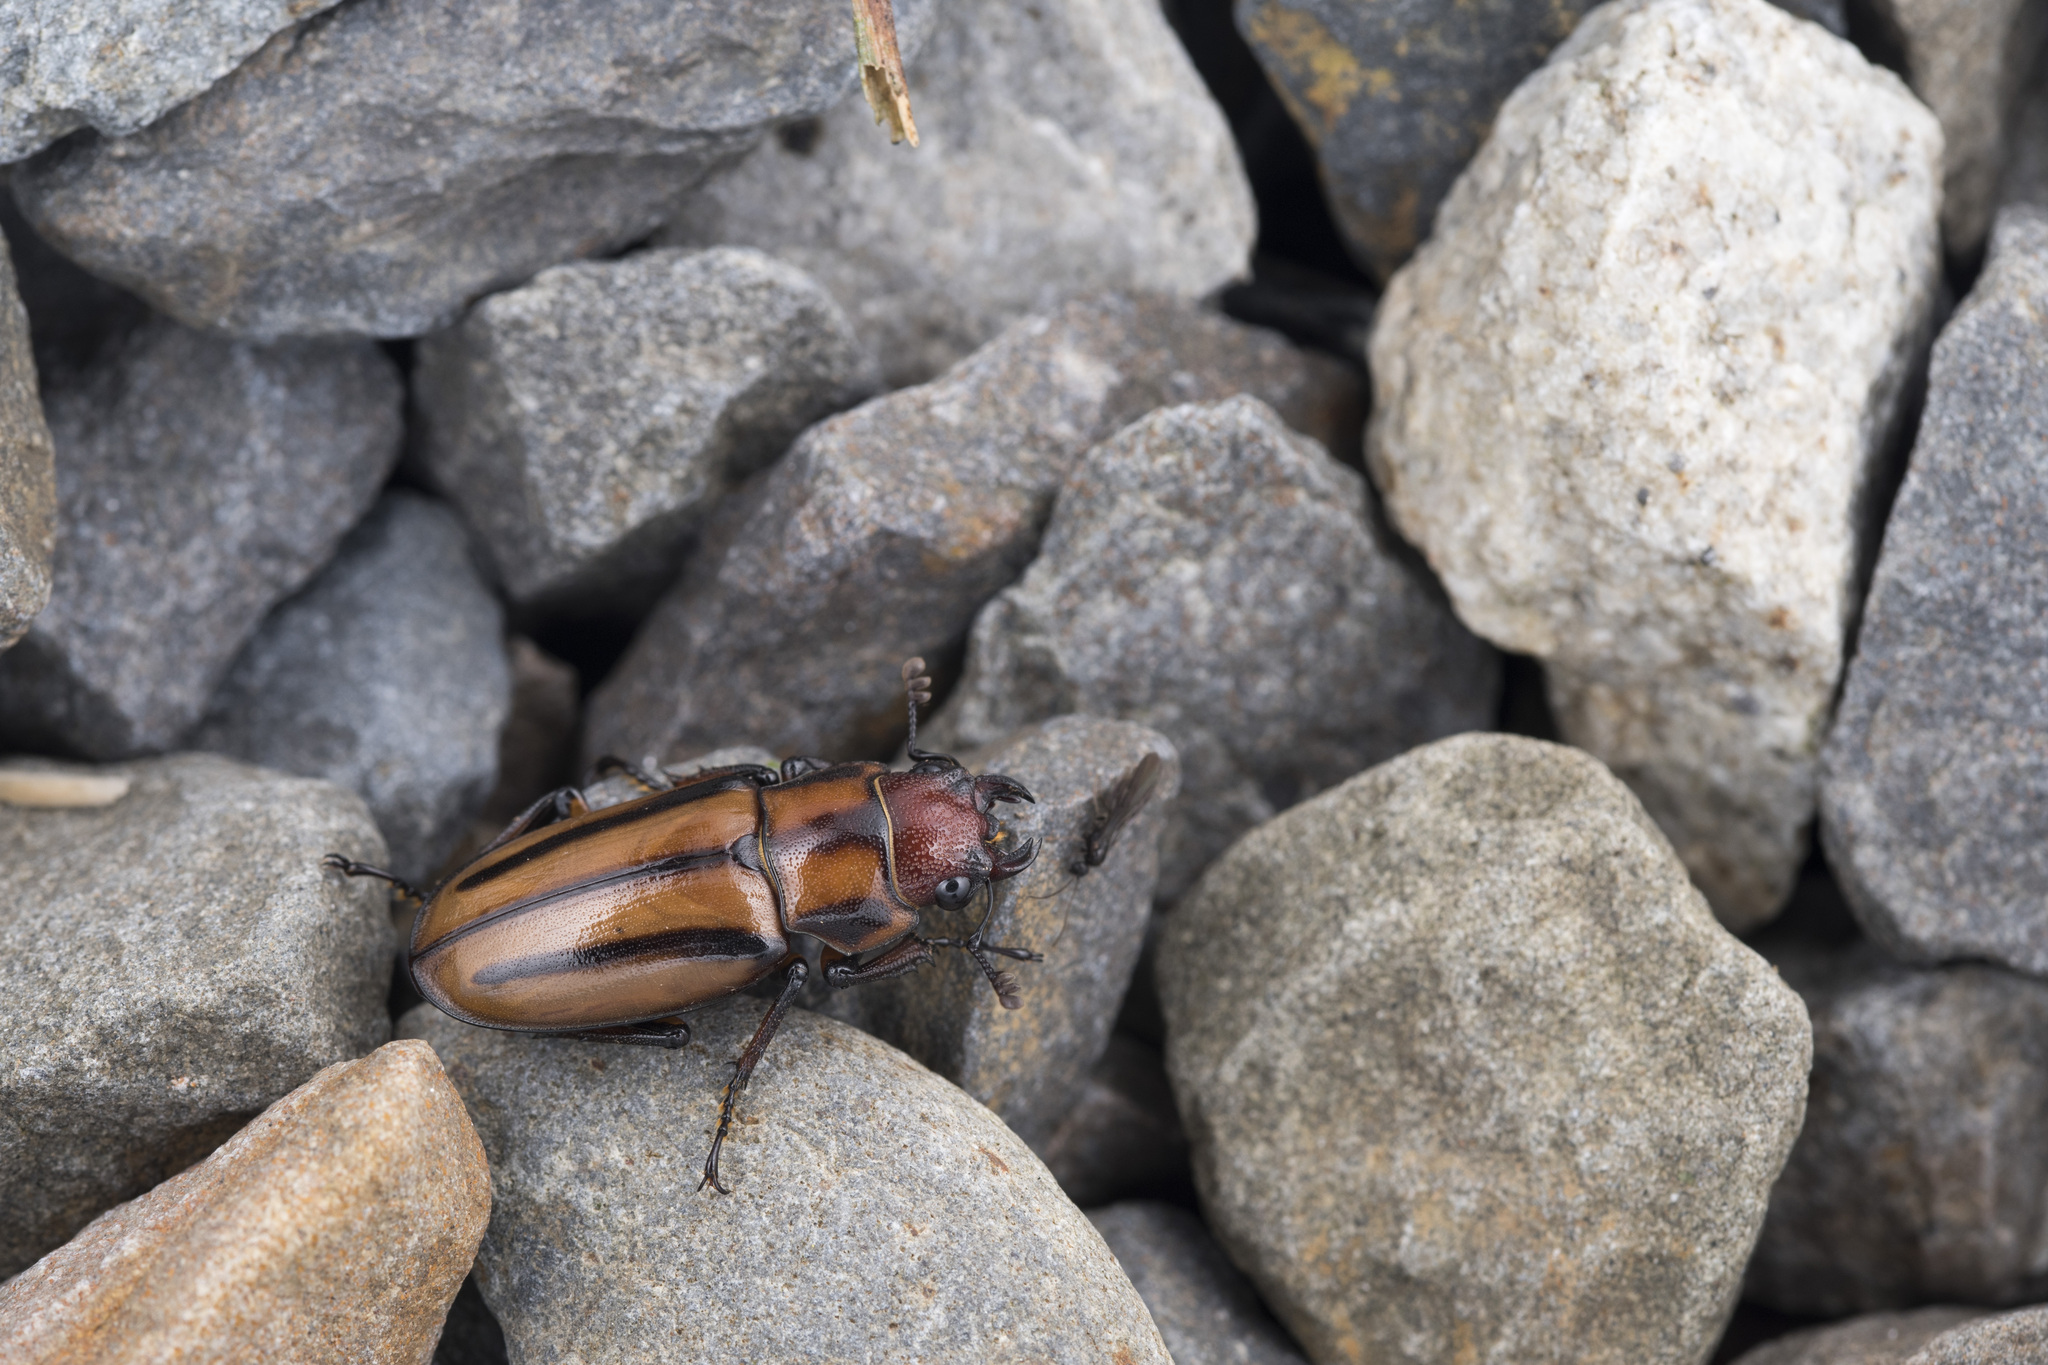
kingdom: Animalia
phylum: Arthropoda
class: Insecta
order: Coleoptera
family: Lucanidae
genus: Cyclommatinus
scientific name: Cyclommatinus asahinai
